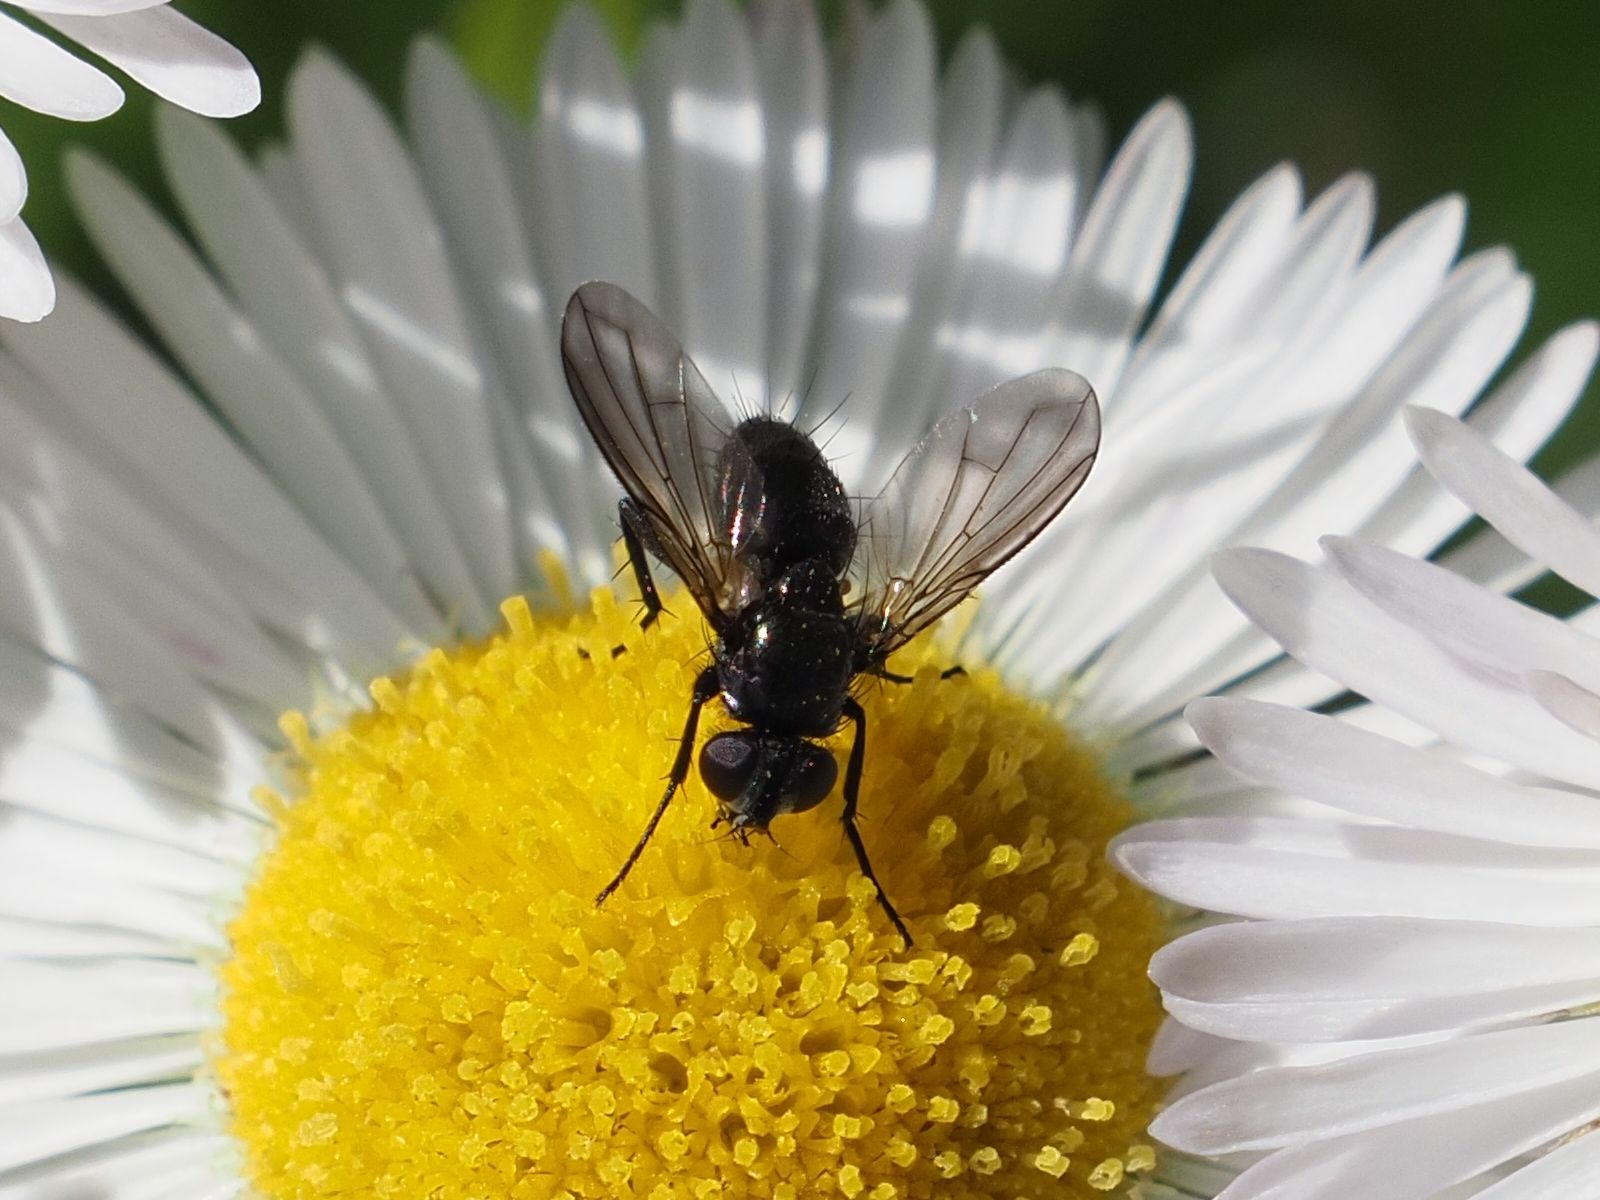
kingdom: Animalia
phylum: Arthropoda
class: Insecta
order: Diptera
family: Calliphoridae
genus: Rhinophora
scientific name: Rhinophora lepida
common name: Pouting woodlouse-fly
